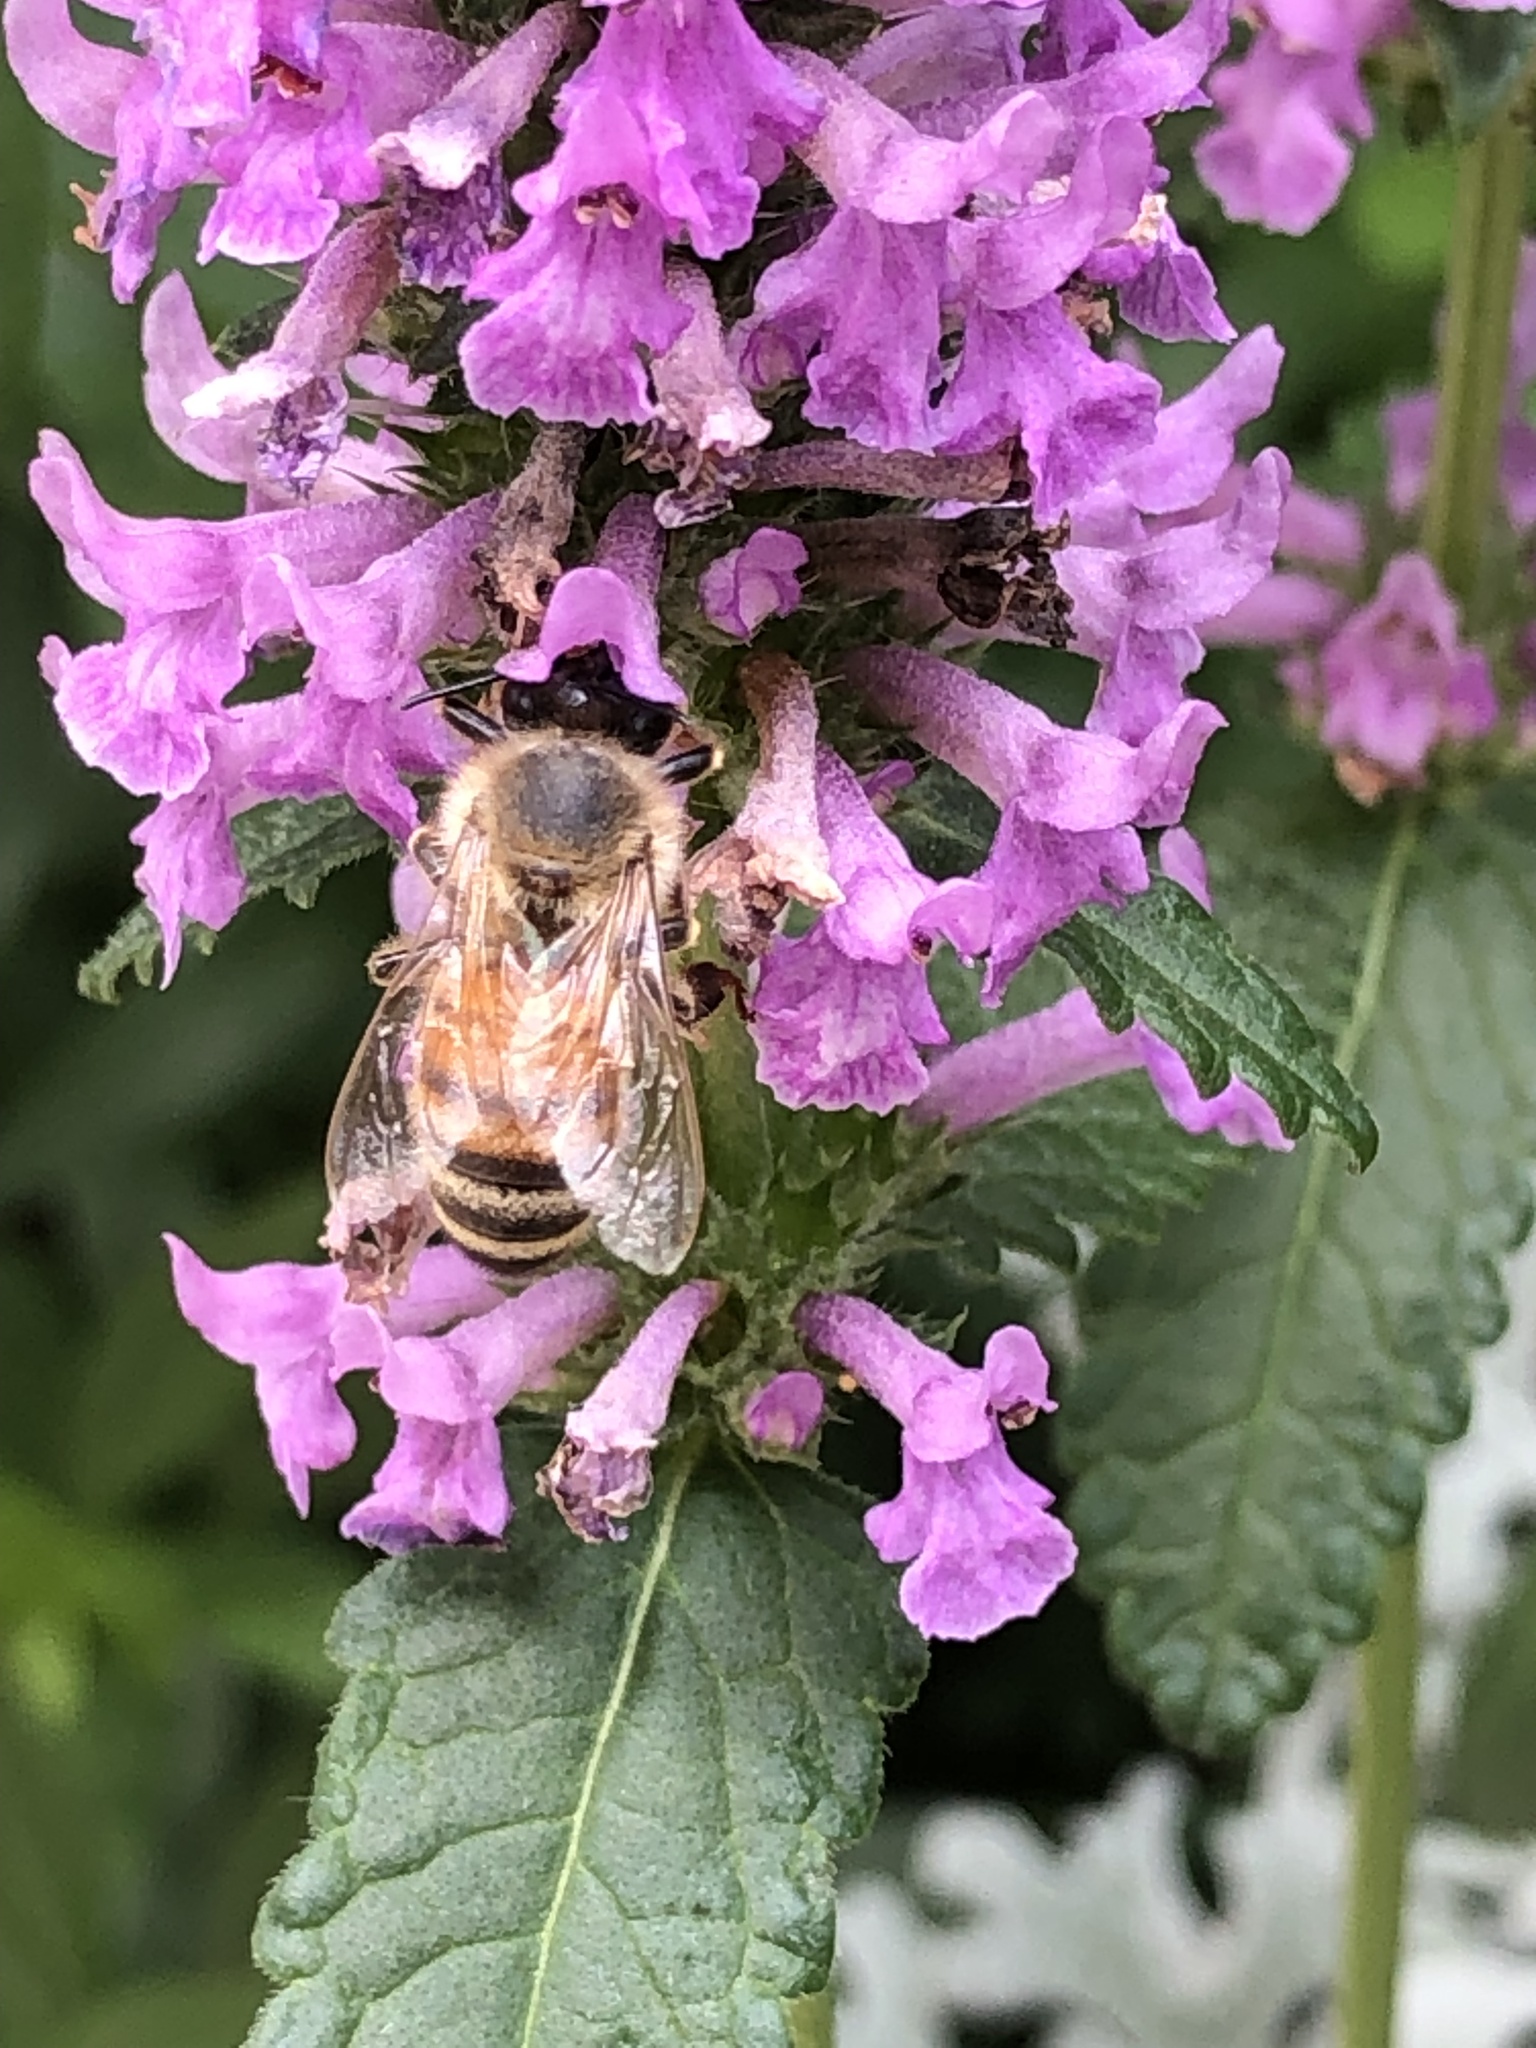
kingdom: Animalia
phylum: Arthropoda
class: Insecta
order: Hymenoptera
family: Apidae
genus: Apis
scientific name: Apis mellifera
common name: Honey bee
